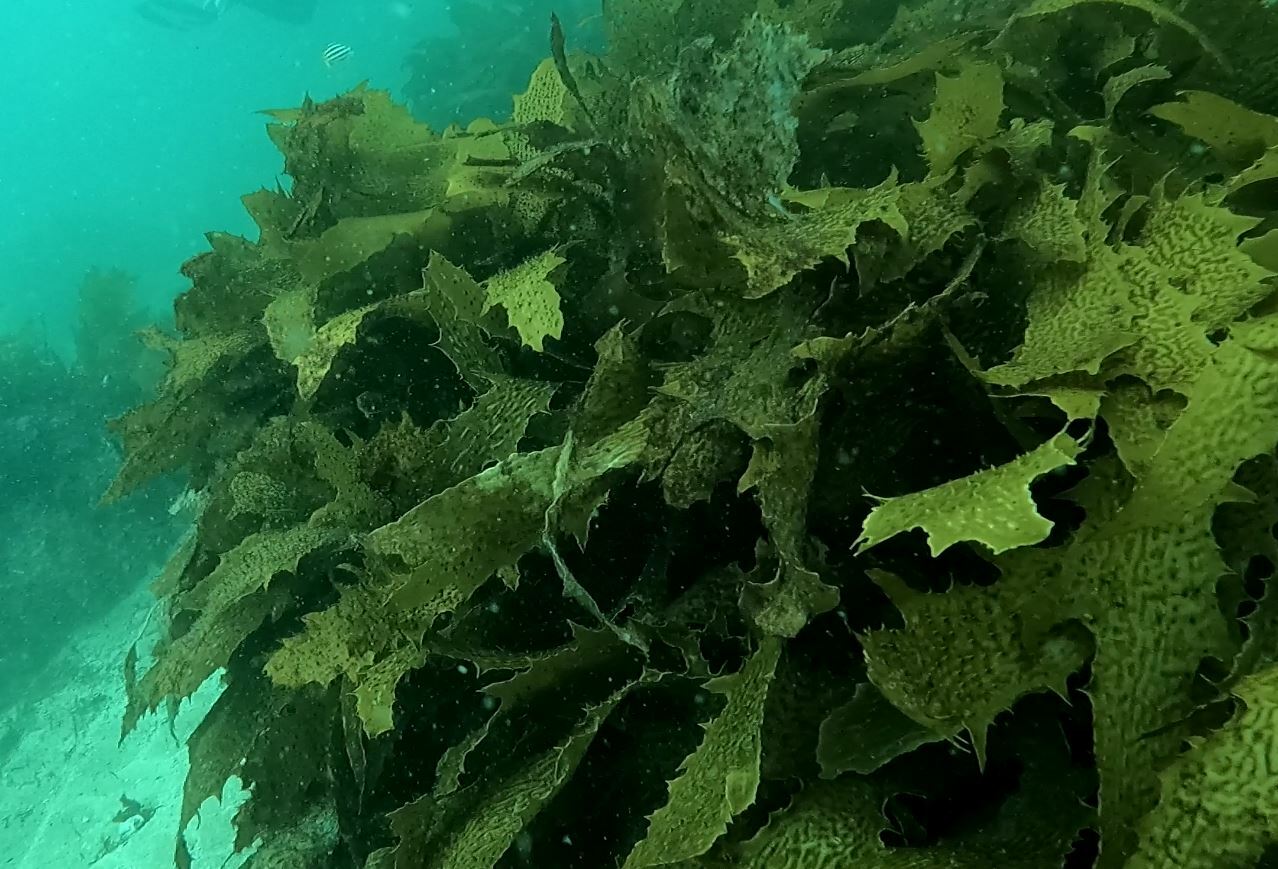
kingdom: Chromista
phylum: Ochrophyta
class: Phaeophyceae
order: Laminariales
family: Lessoniaceae
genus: Ecklonia
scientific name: Ecklonia radiata
